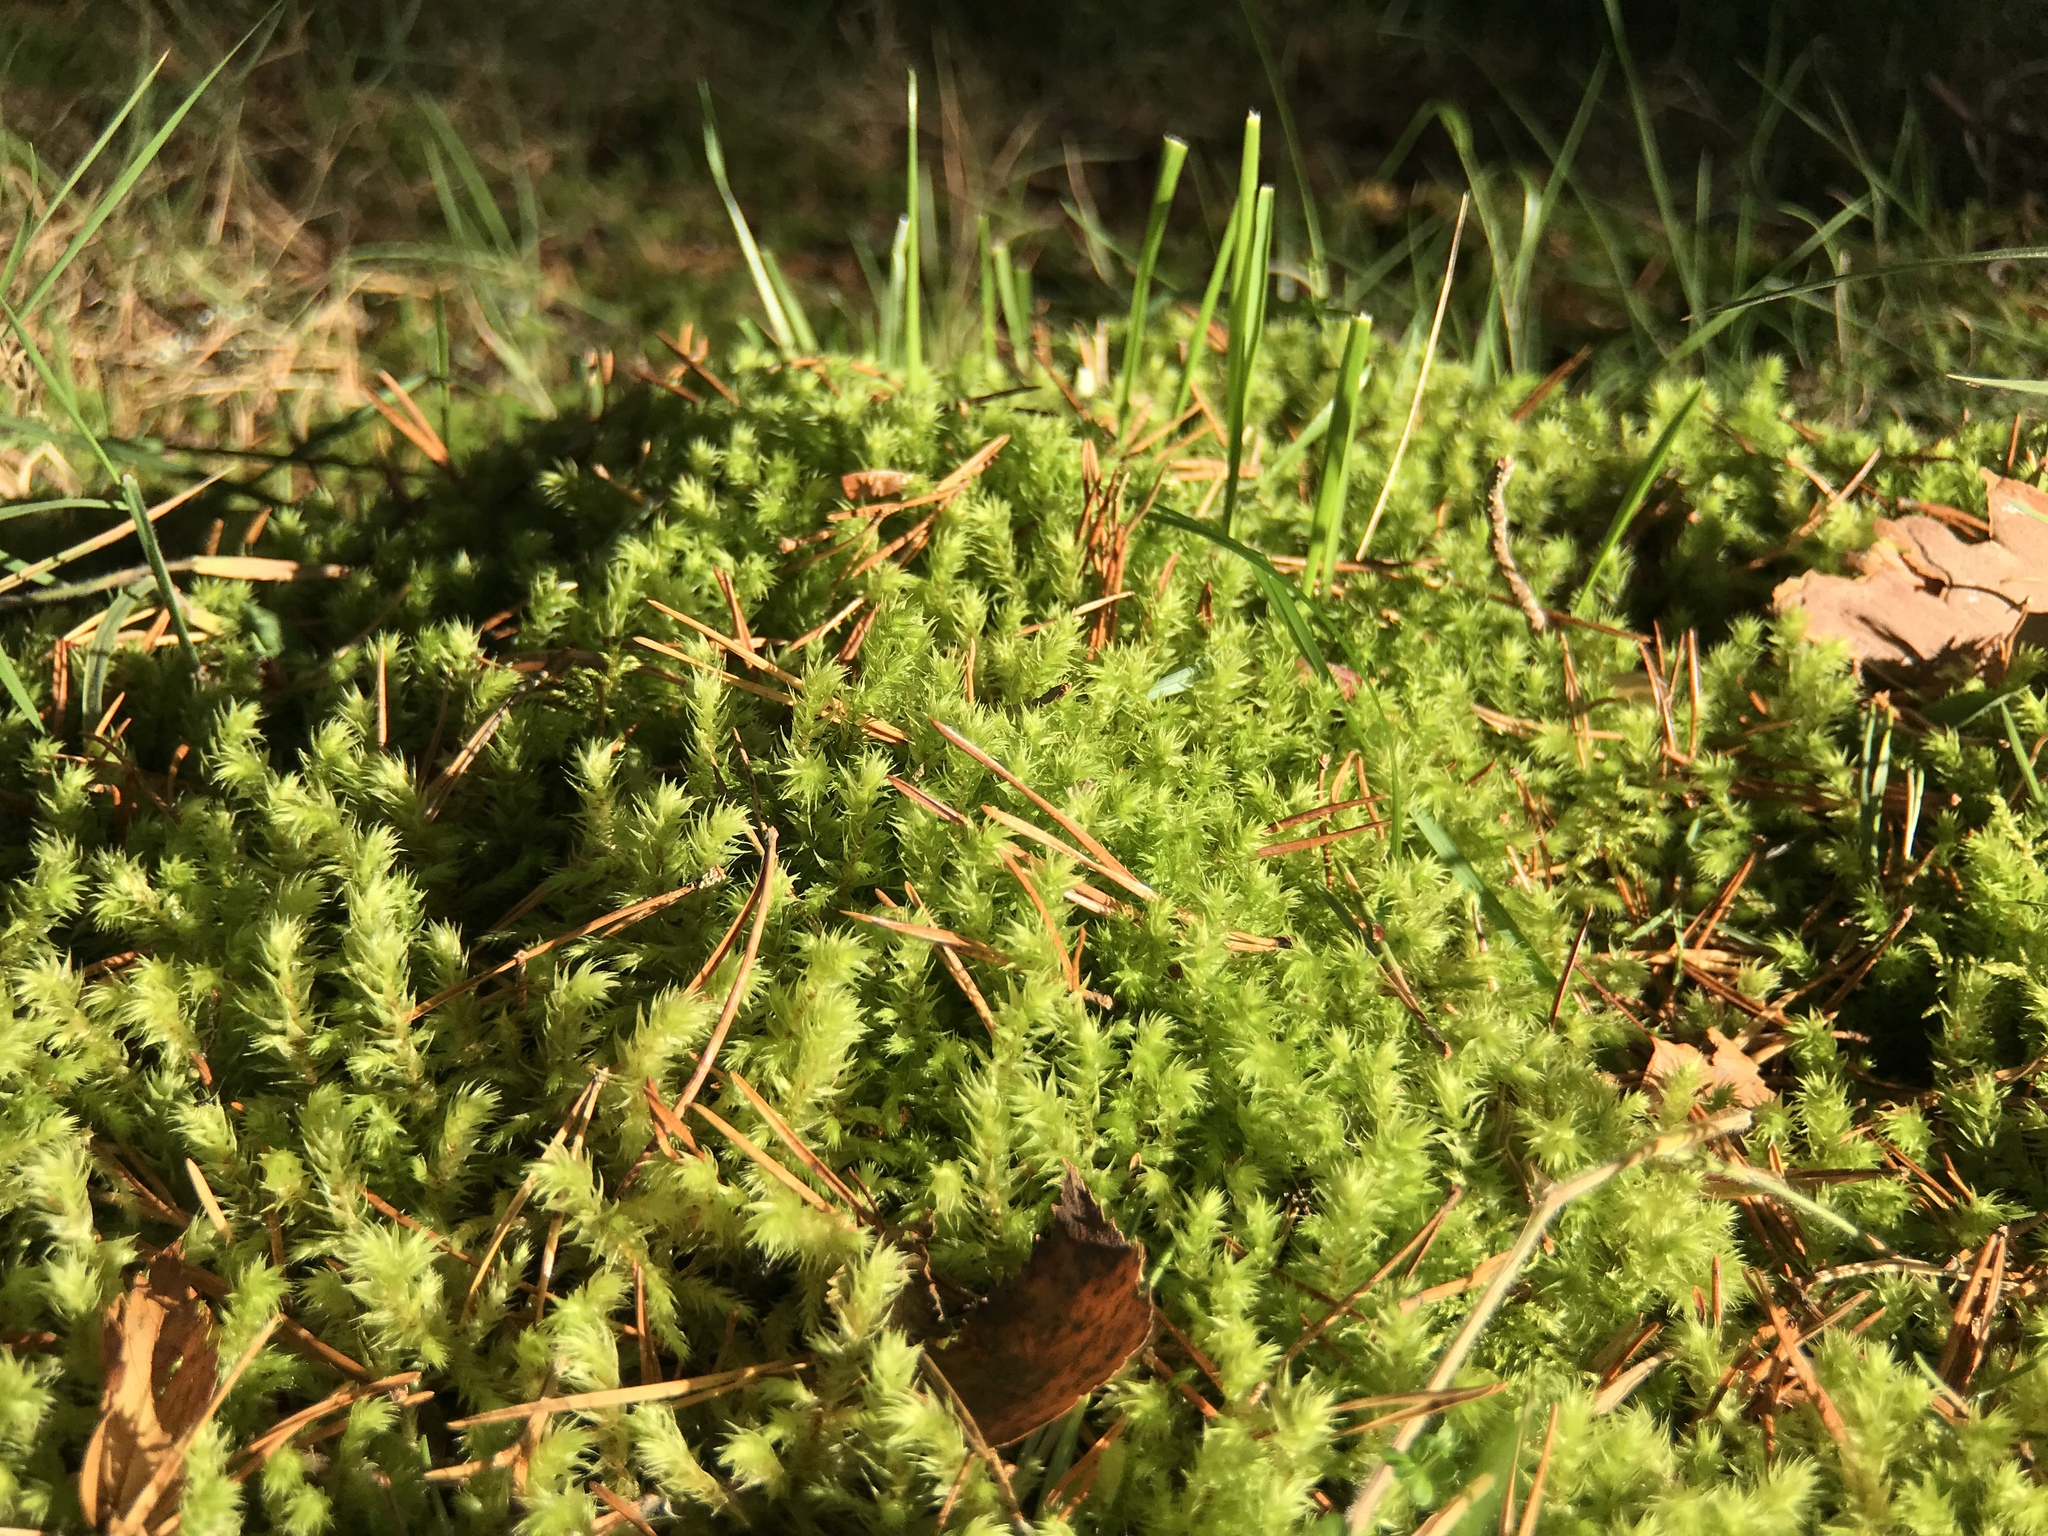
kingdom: Plantae
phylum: Bryophyta
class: Bryopsida
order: Hypnales
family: Hylocomiaceae
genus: Hylocomiadelphus
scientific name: Hylocomiadelphus triquetrus
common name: Rough goose neck moss
